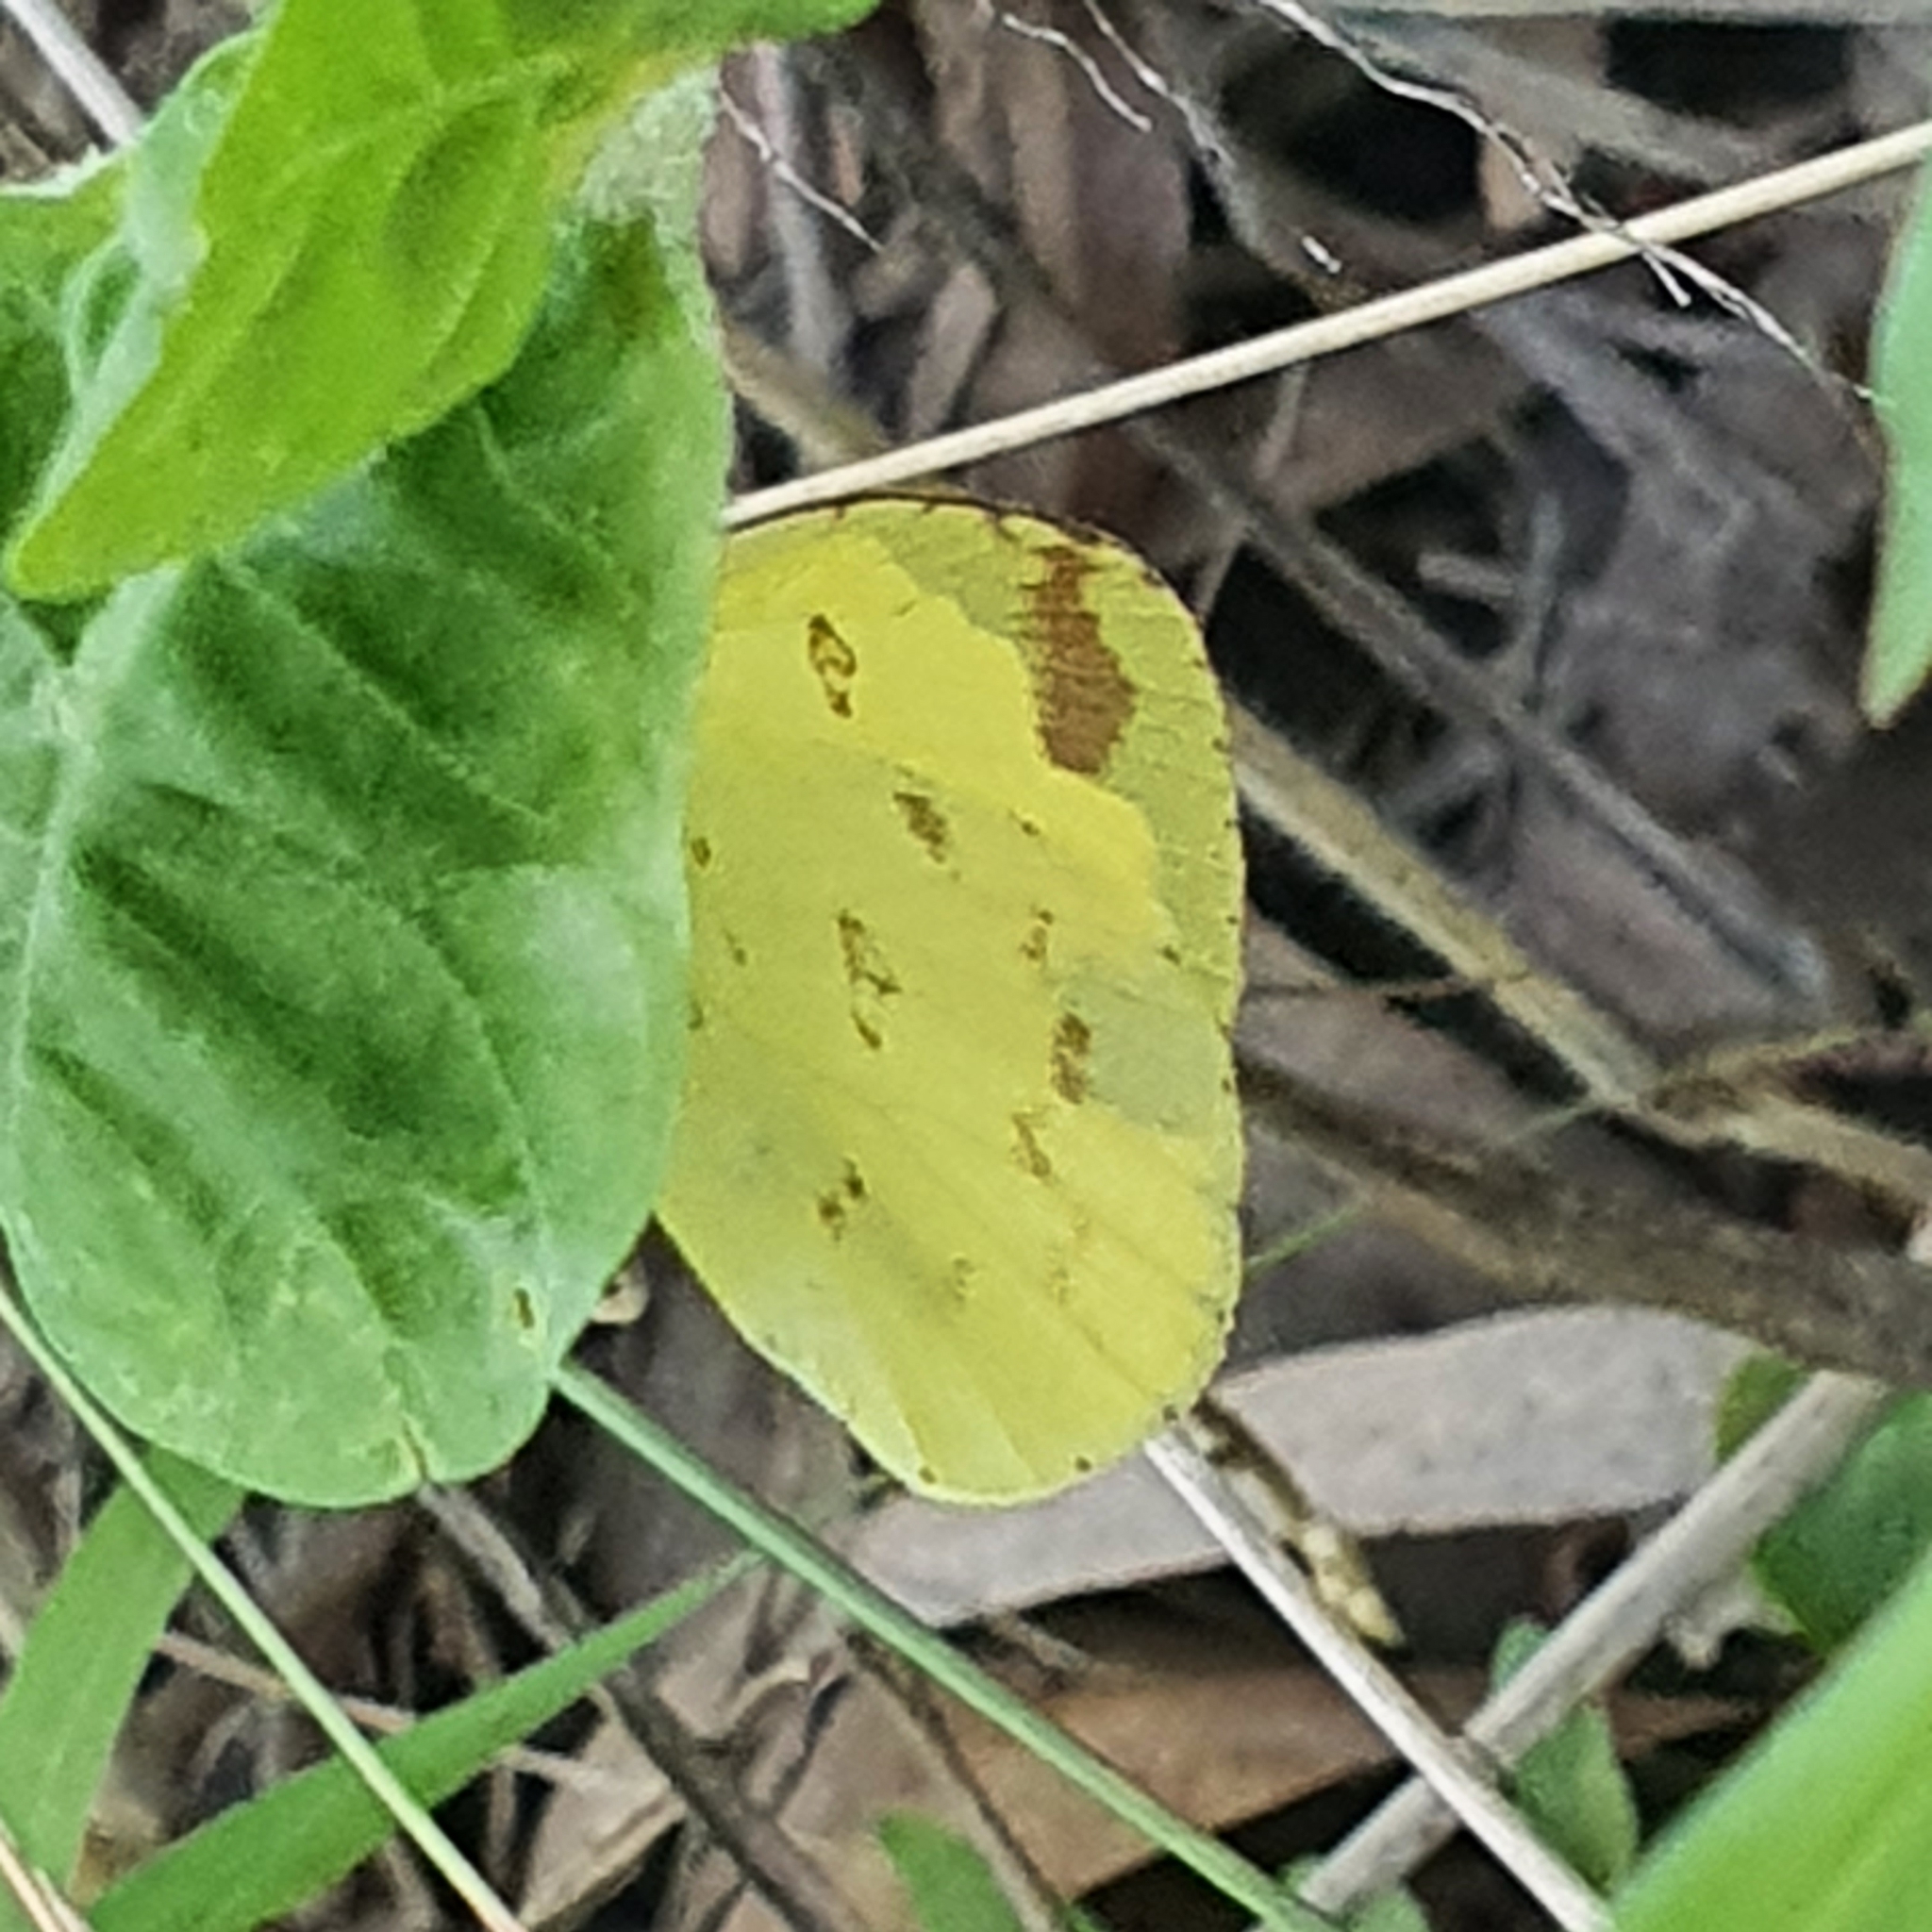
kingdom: Animalia
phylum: Arthropoda
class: Insecta
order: Lepidoptera
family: Pieridae
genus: Eurema
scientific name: Eurema hecabe
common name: Pale grass yellow
